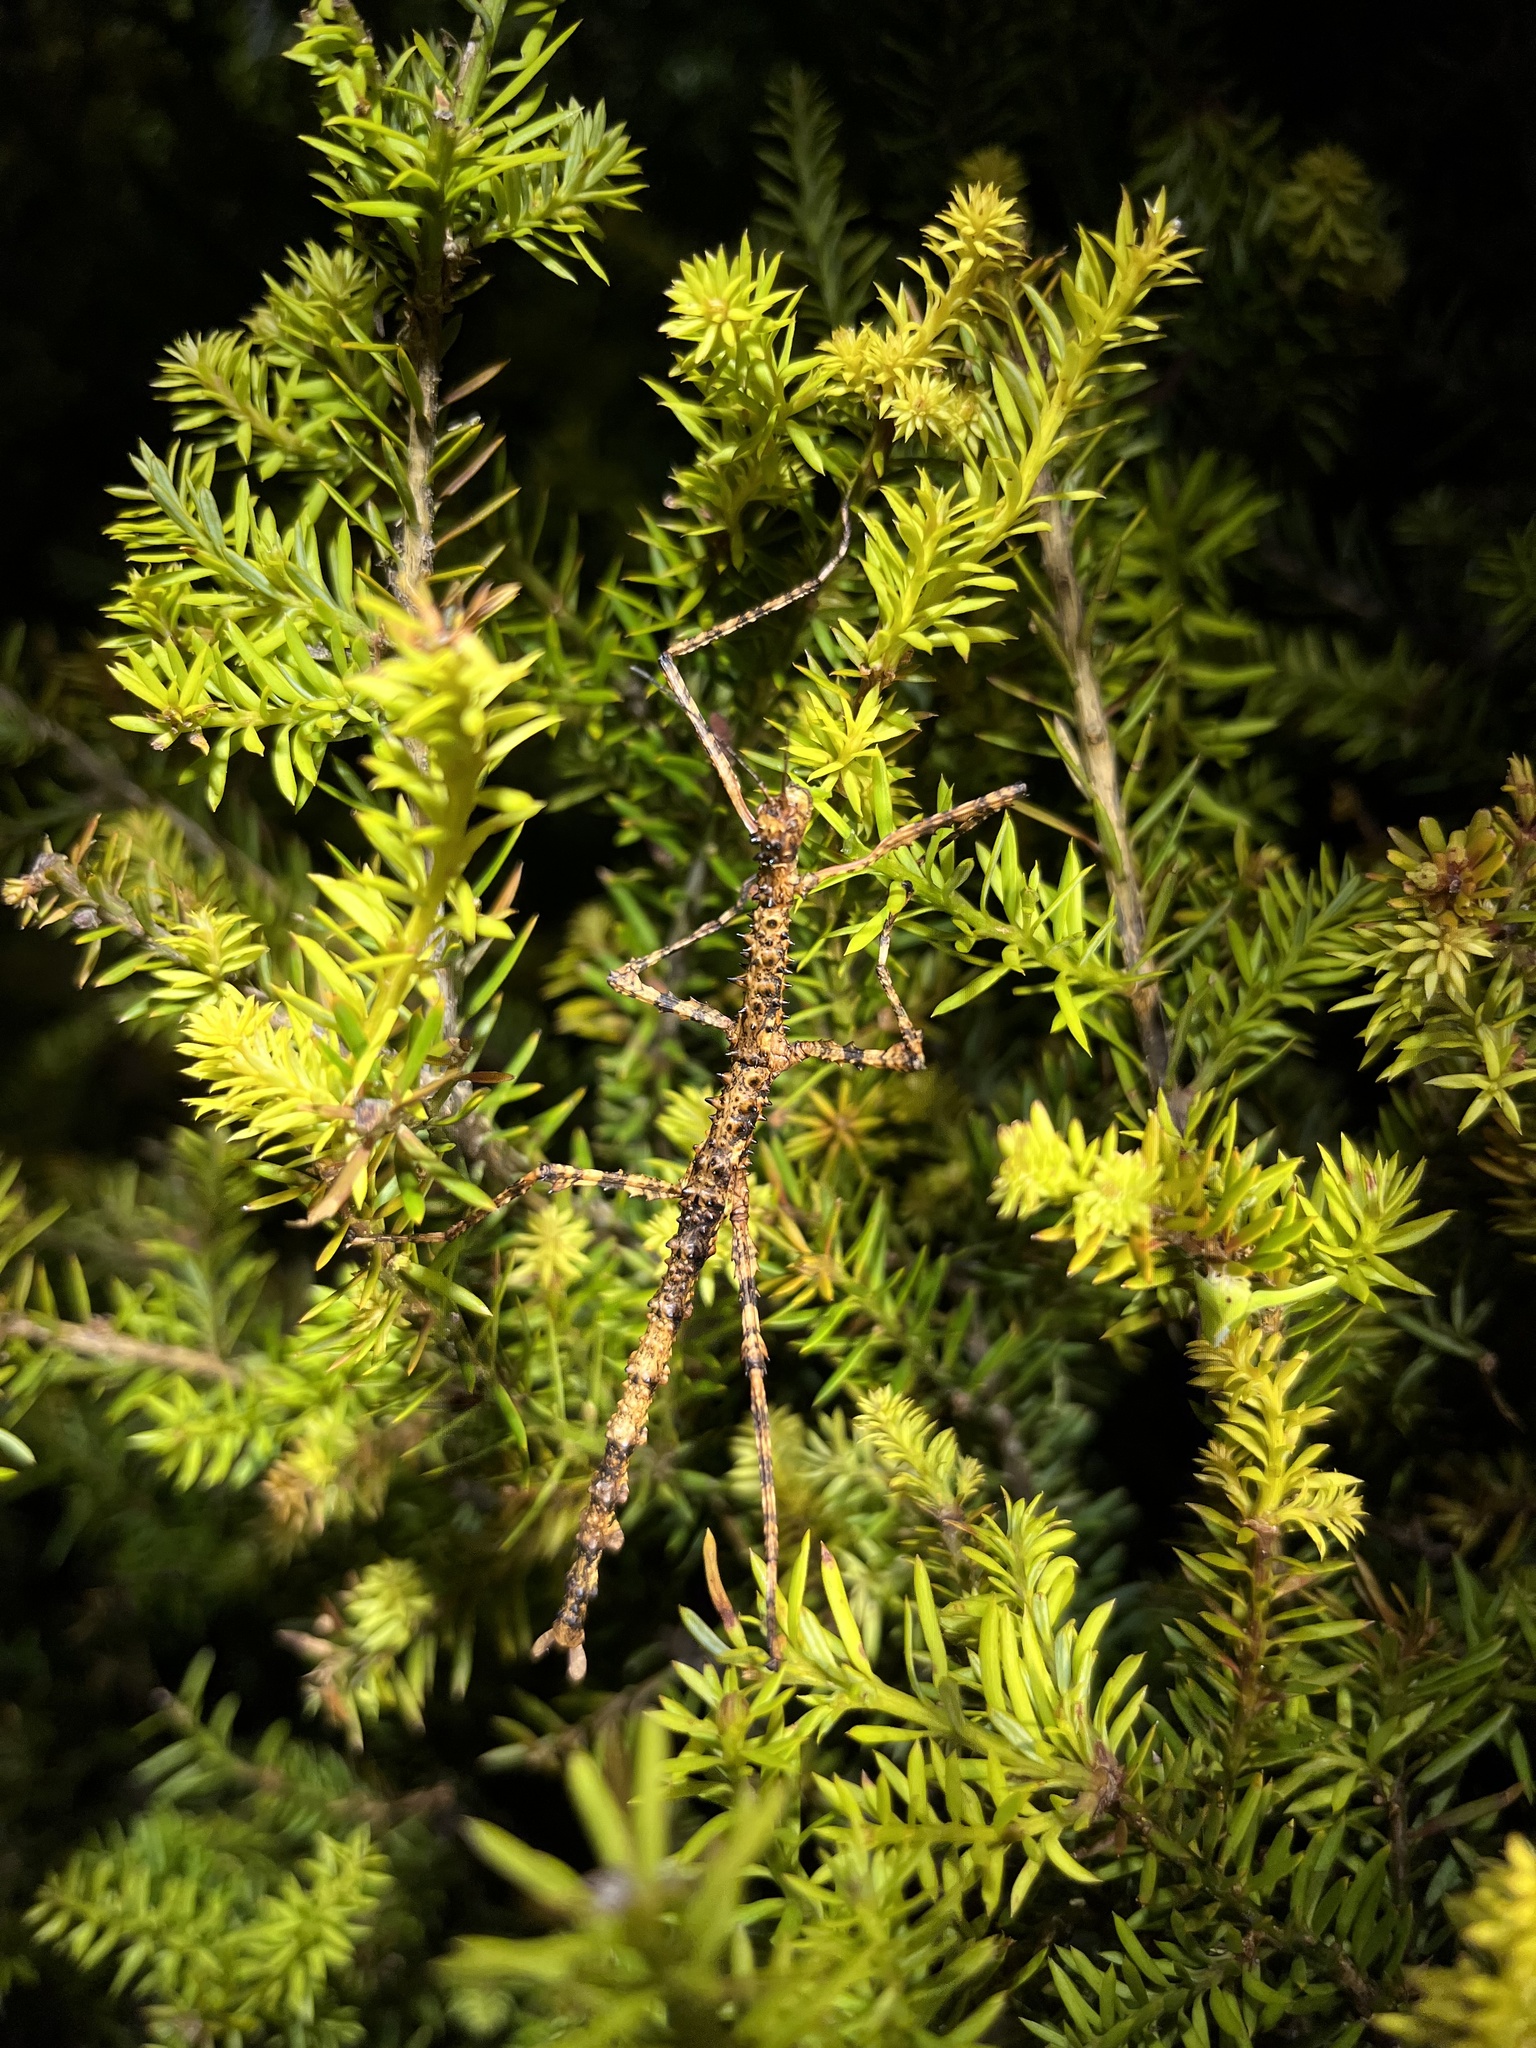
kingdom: Animalia
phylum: Arthropoda
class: Insecta
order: Phasmida
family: Phasmatidae
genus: Acanthoxyla
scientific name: Acanthoxyla prasina
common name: Black-spined stick insect
